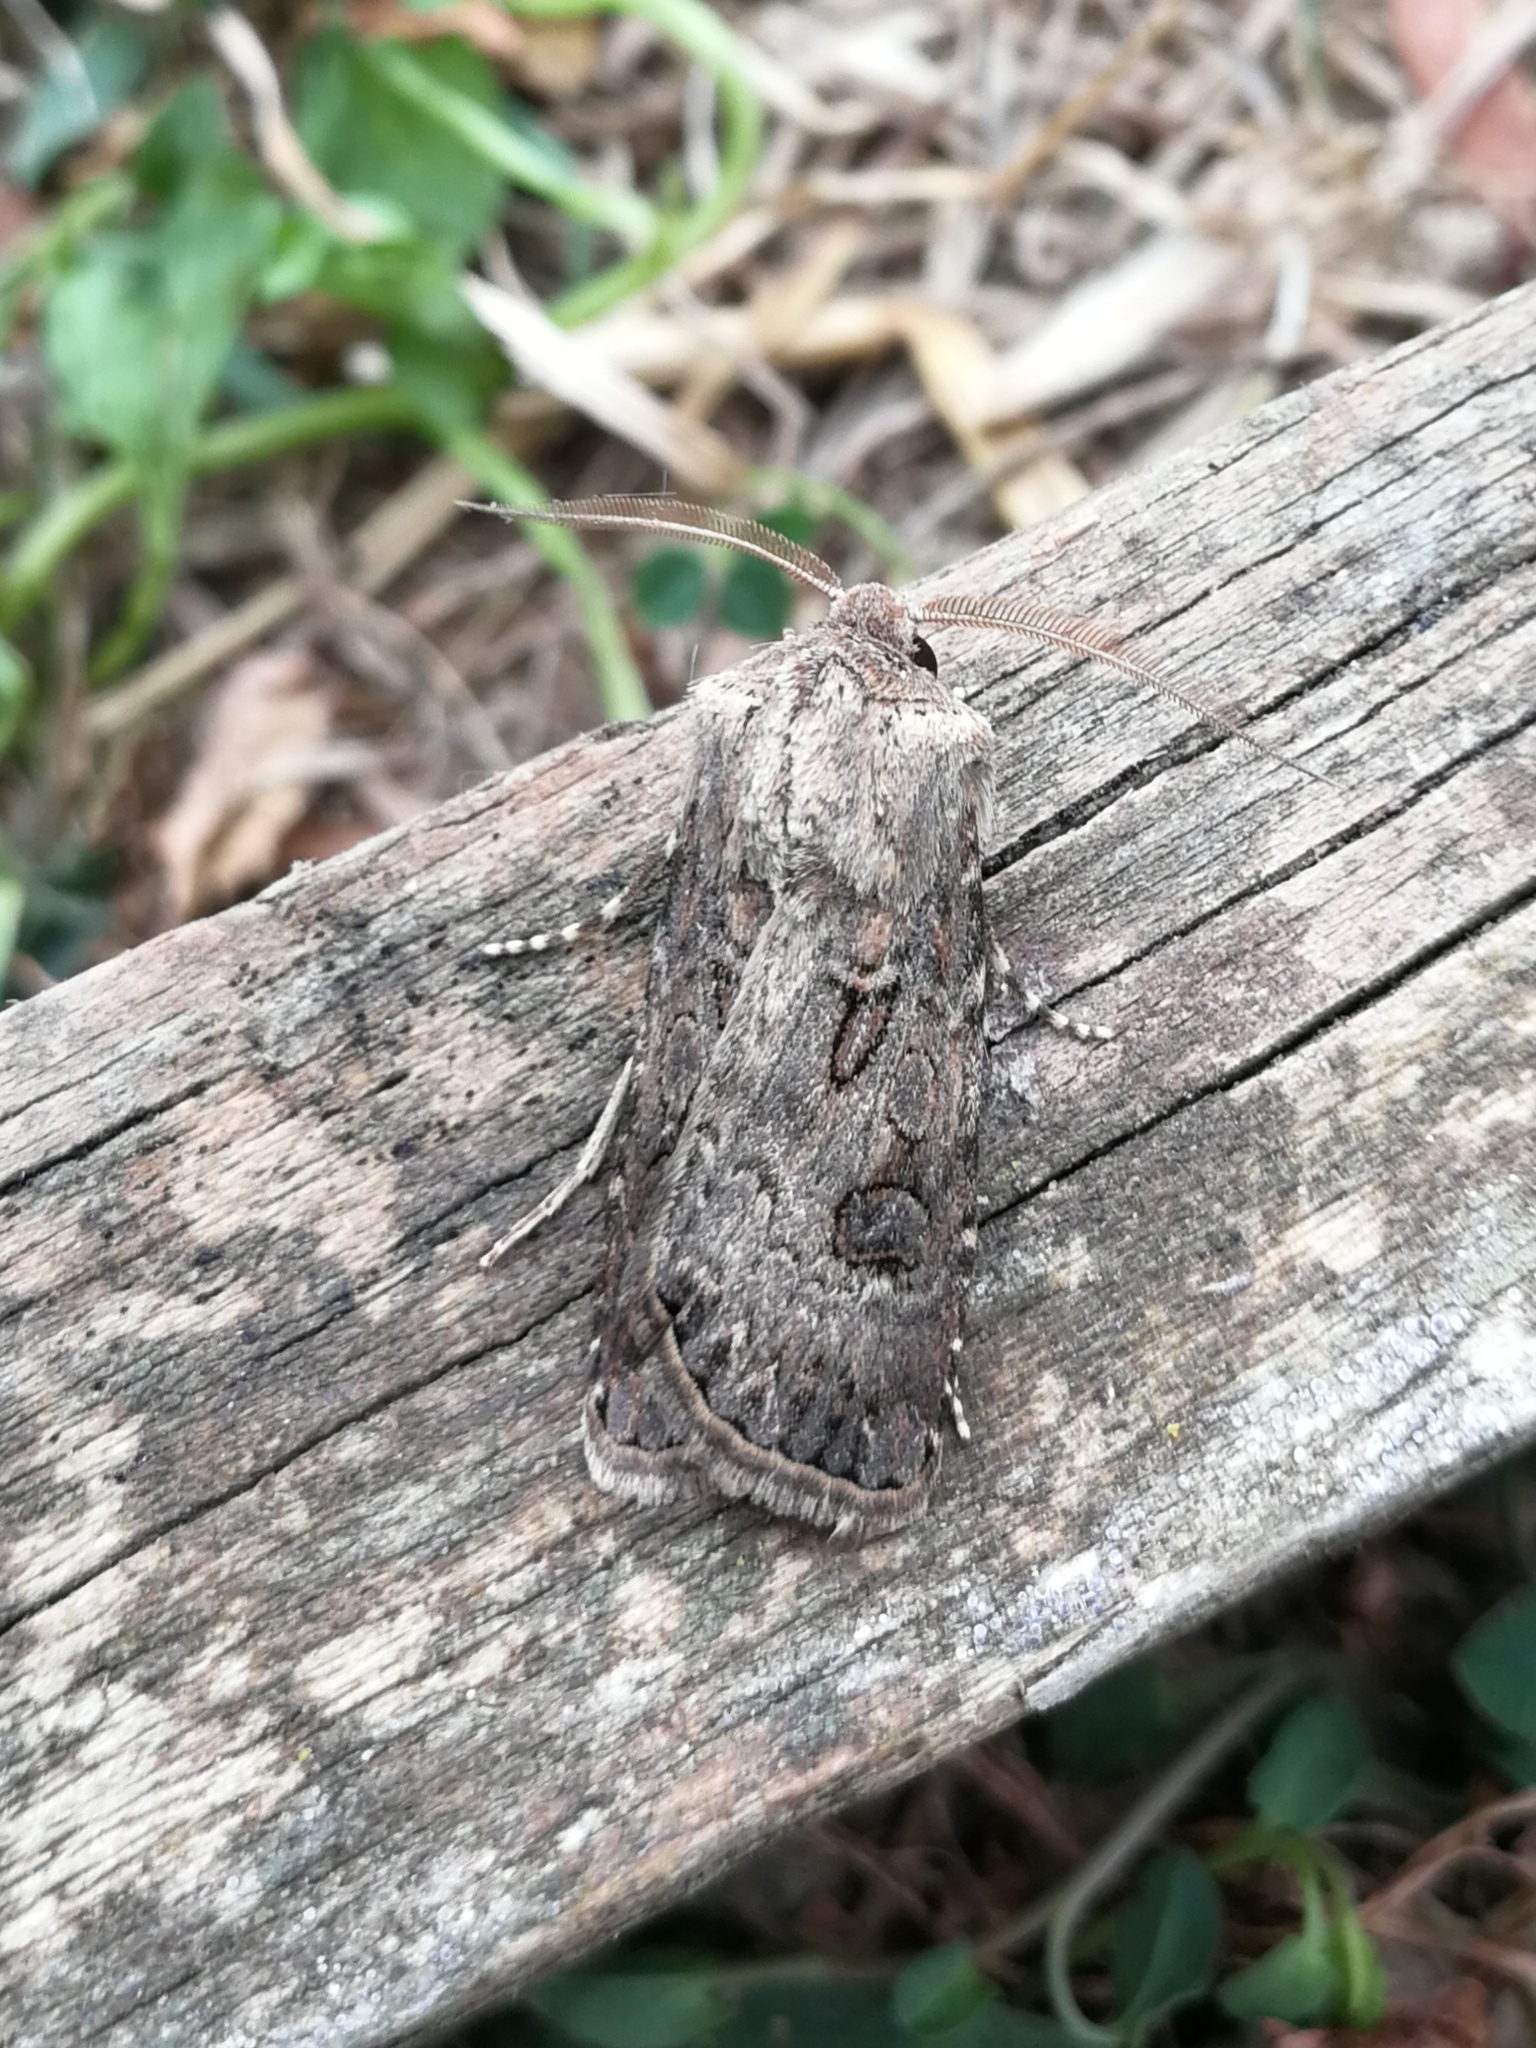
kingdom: Animalia
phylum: Arthropoda
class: Insecta
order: Lepidoptera
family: Noctuidae
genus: Agrotis
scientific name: Agrotis bigramma
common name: Great dart
